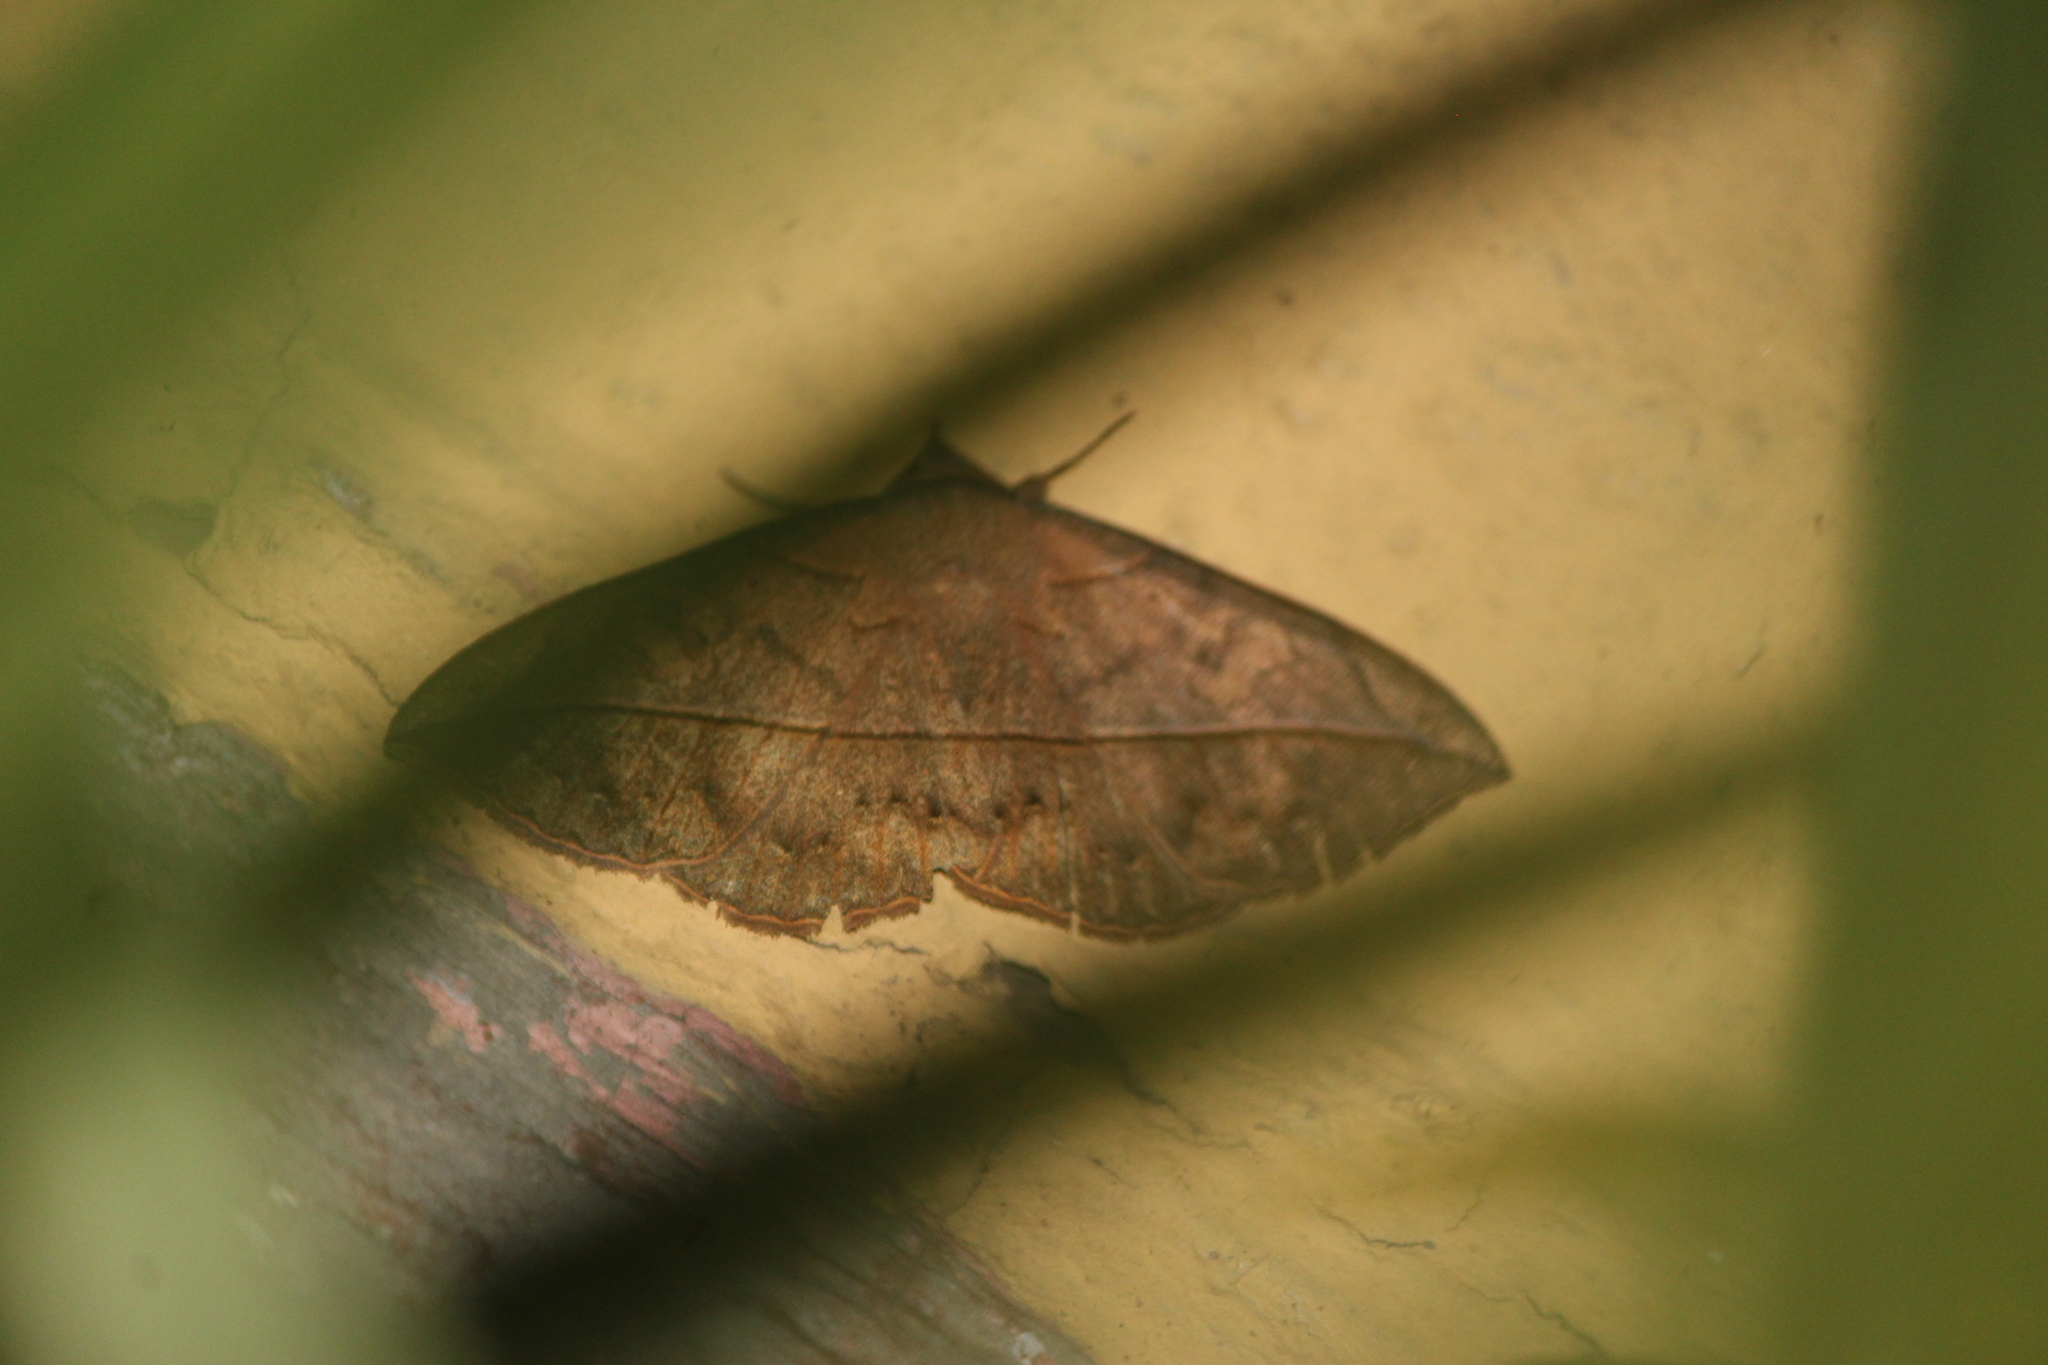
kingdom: Animalia
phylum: Arthropoda
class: Insecta
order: Lepidoptera
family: Erebidae
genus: Anticarsia
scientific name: Anticarsia gemmatalis
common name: Cutworm moth
